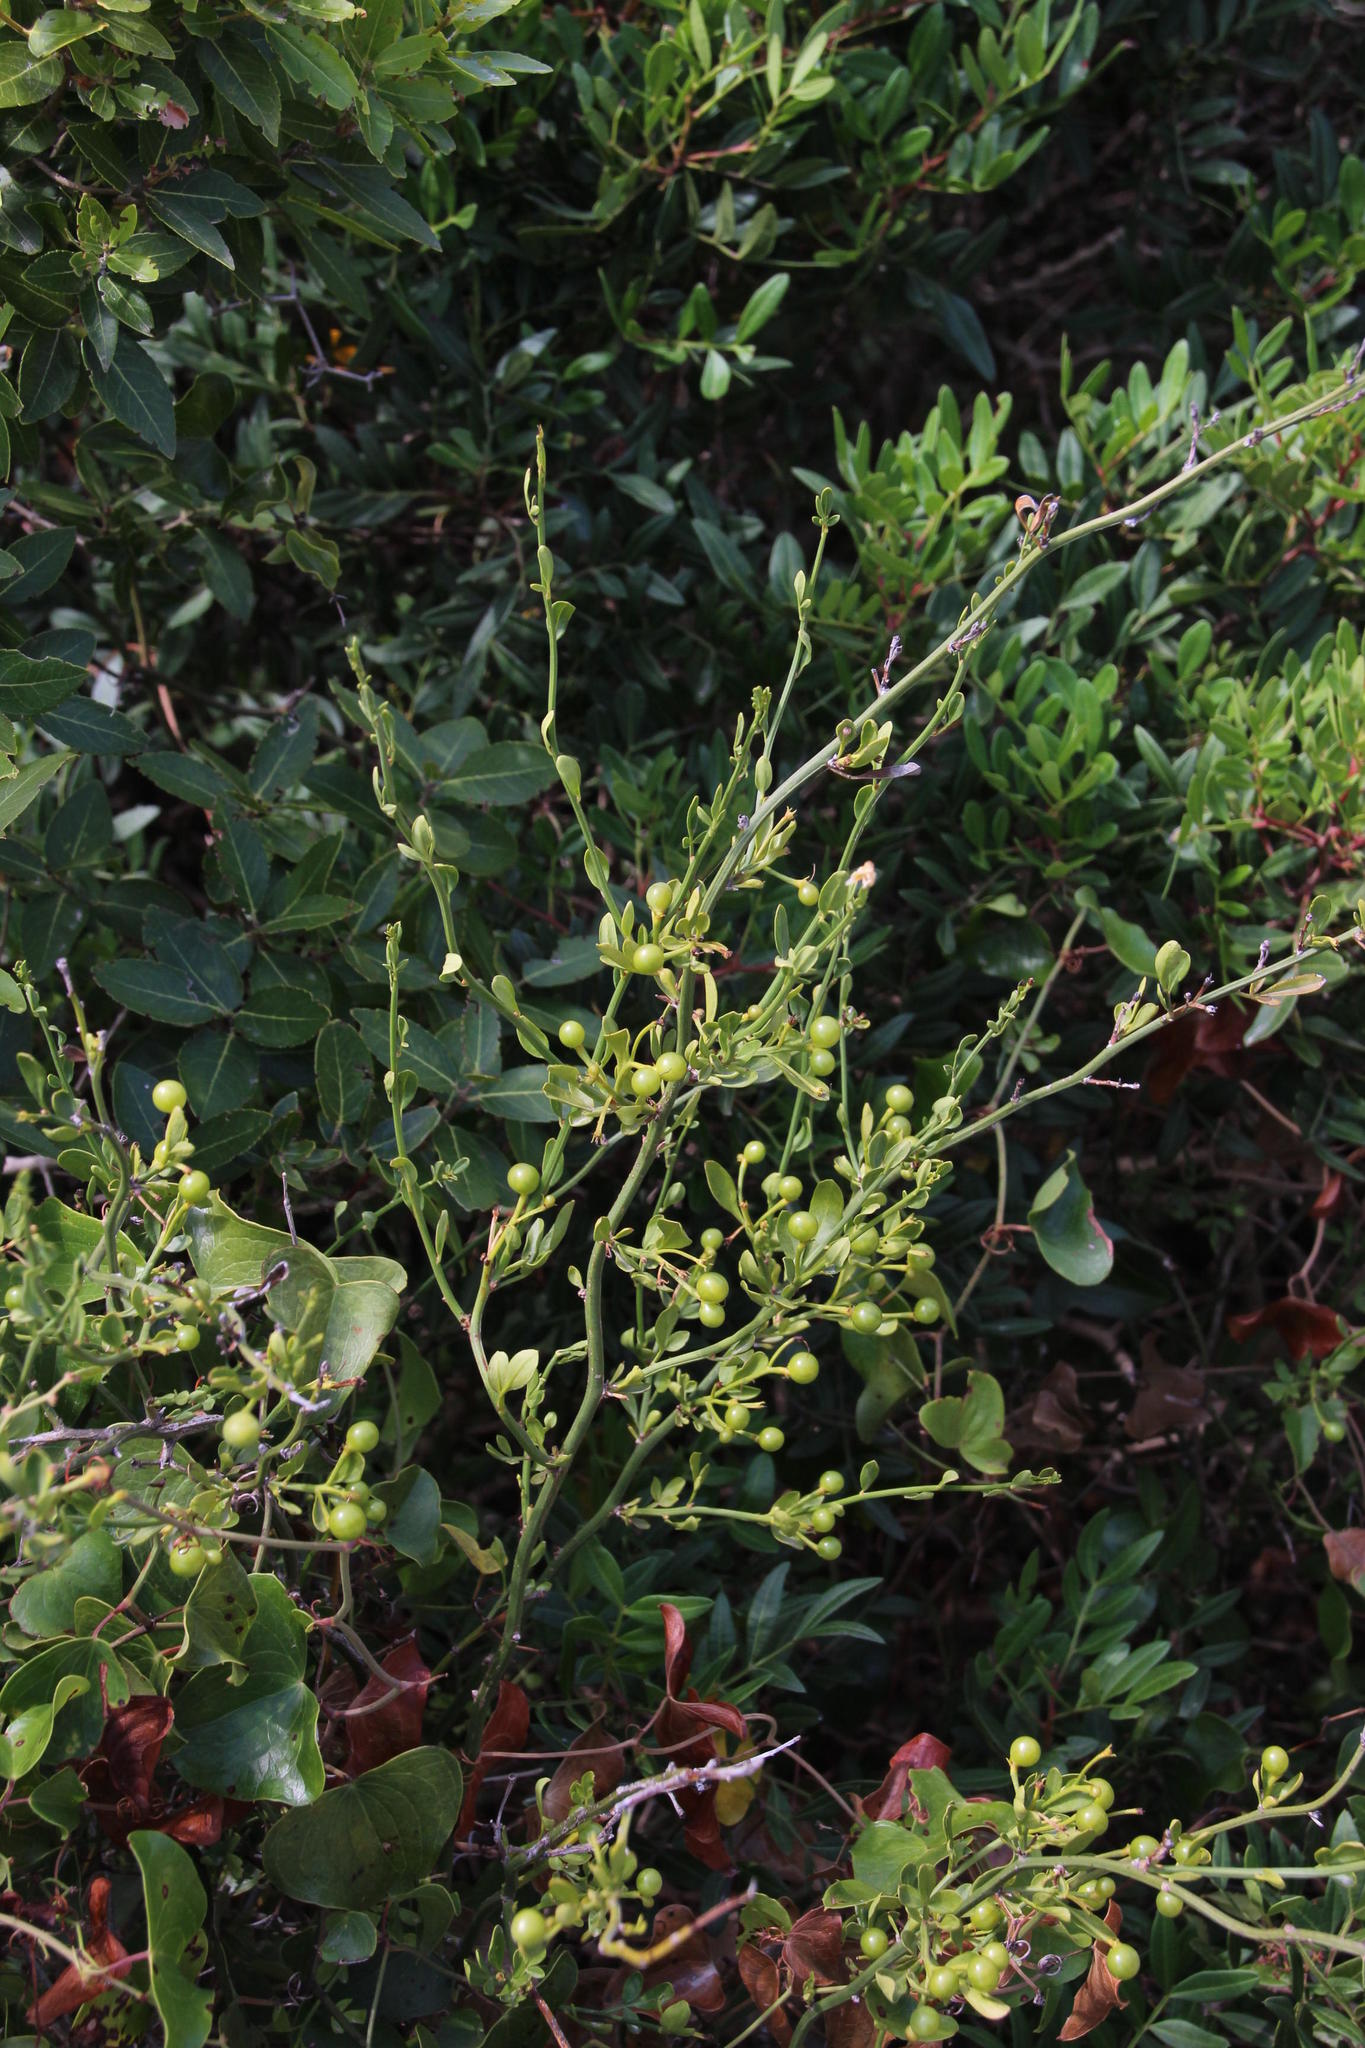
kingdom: Plantae
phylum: Tracheophyta
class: Magnoliopsida
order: Lamiales
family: Oleaceae
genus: Chrysojasminum
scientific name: Chrysojasminum fruticans
